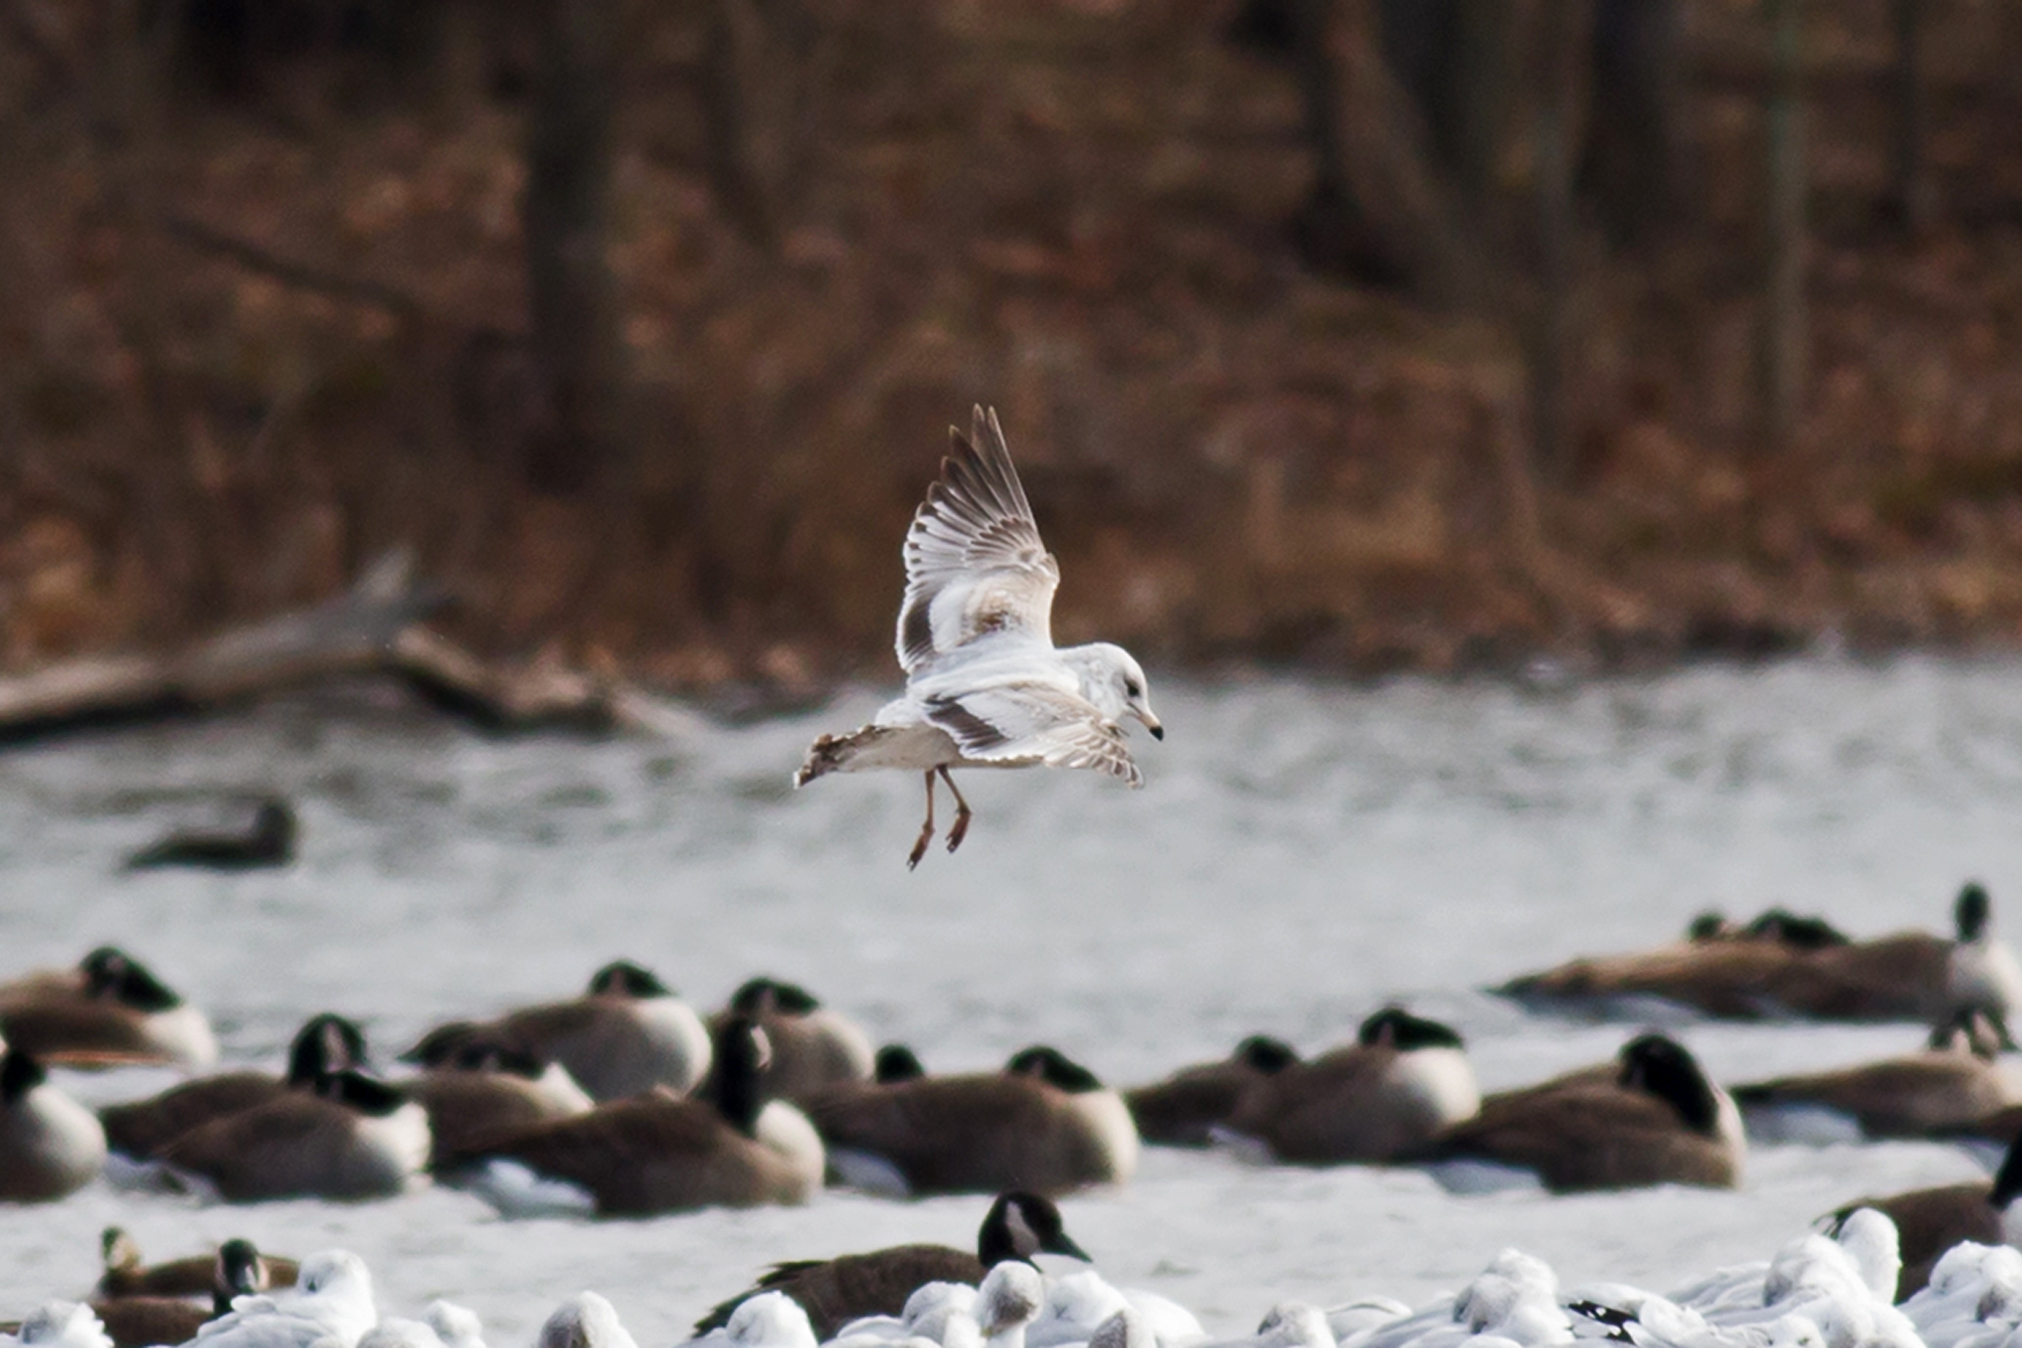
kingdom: Animalia
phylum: Chordata
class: Aves
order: Charadriiformes
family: Laridae
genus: Larus
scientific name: Larus delawarensis
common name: Ring-billed gull
